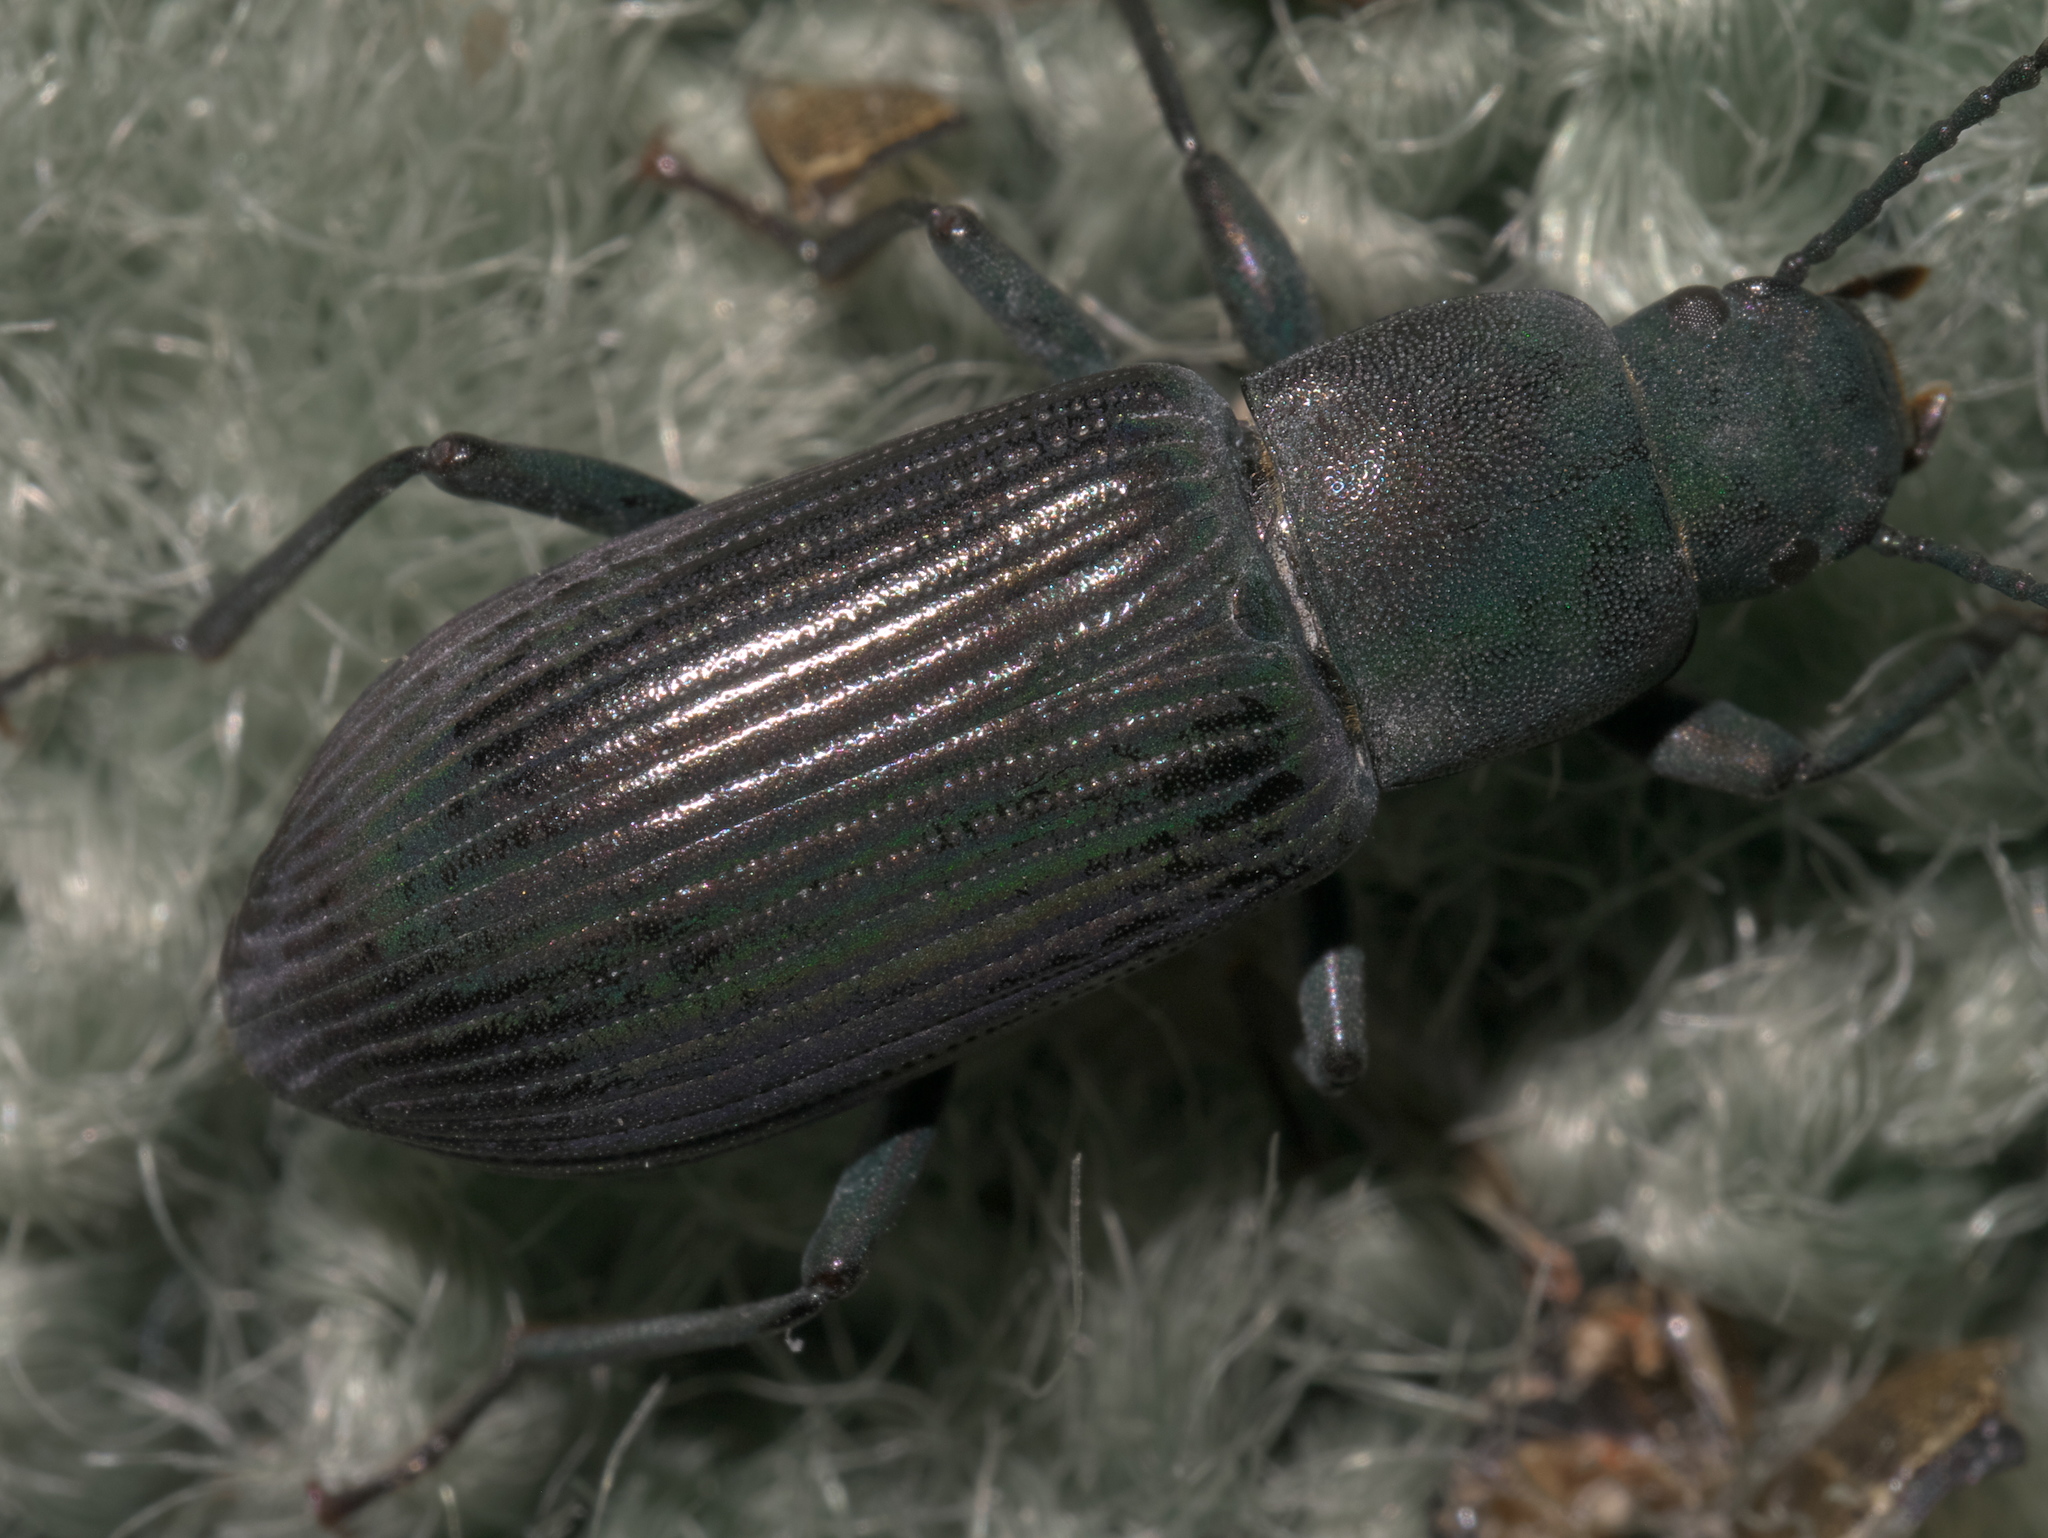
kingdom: Animalia
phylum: Arthropoda
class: Insecta
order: Coleoptera
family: Tenebrionidae
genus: Xylopinus
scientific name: Xylopinus saperdoides
